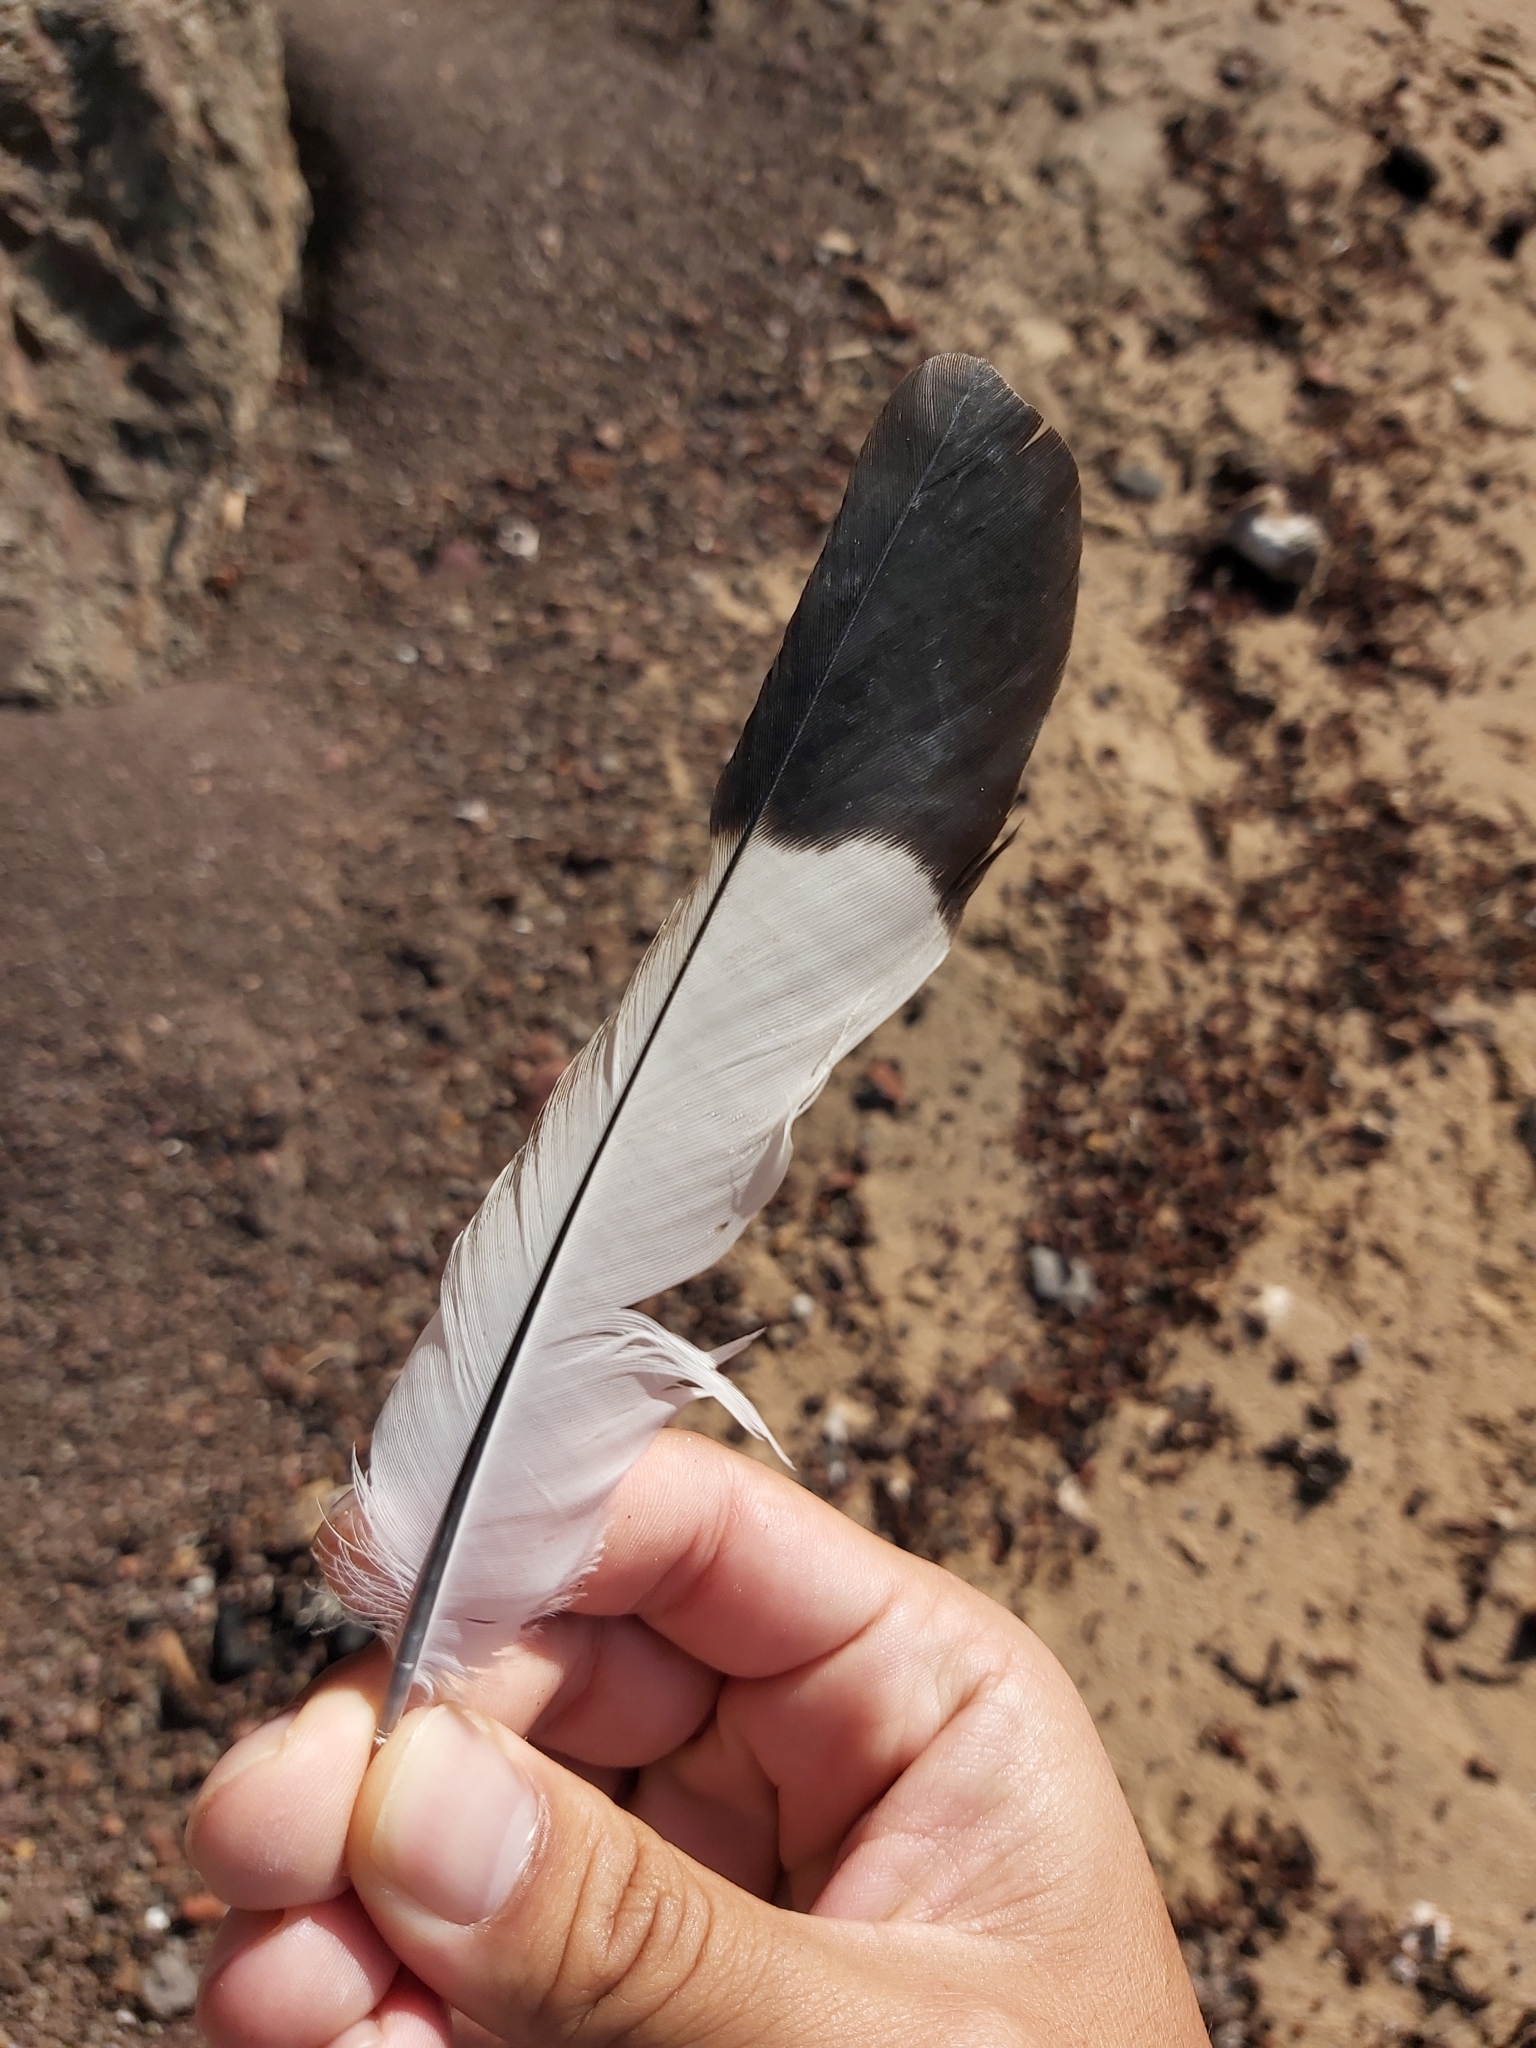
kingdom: Animalia
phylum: Chordata
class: Aves
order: Passeriformes
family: Cracticidae
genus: Gymnorhina
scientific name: Gymnorhina tibicen
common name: Australian magpie
